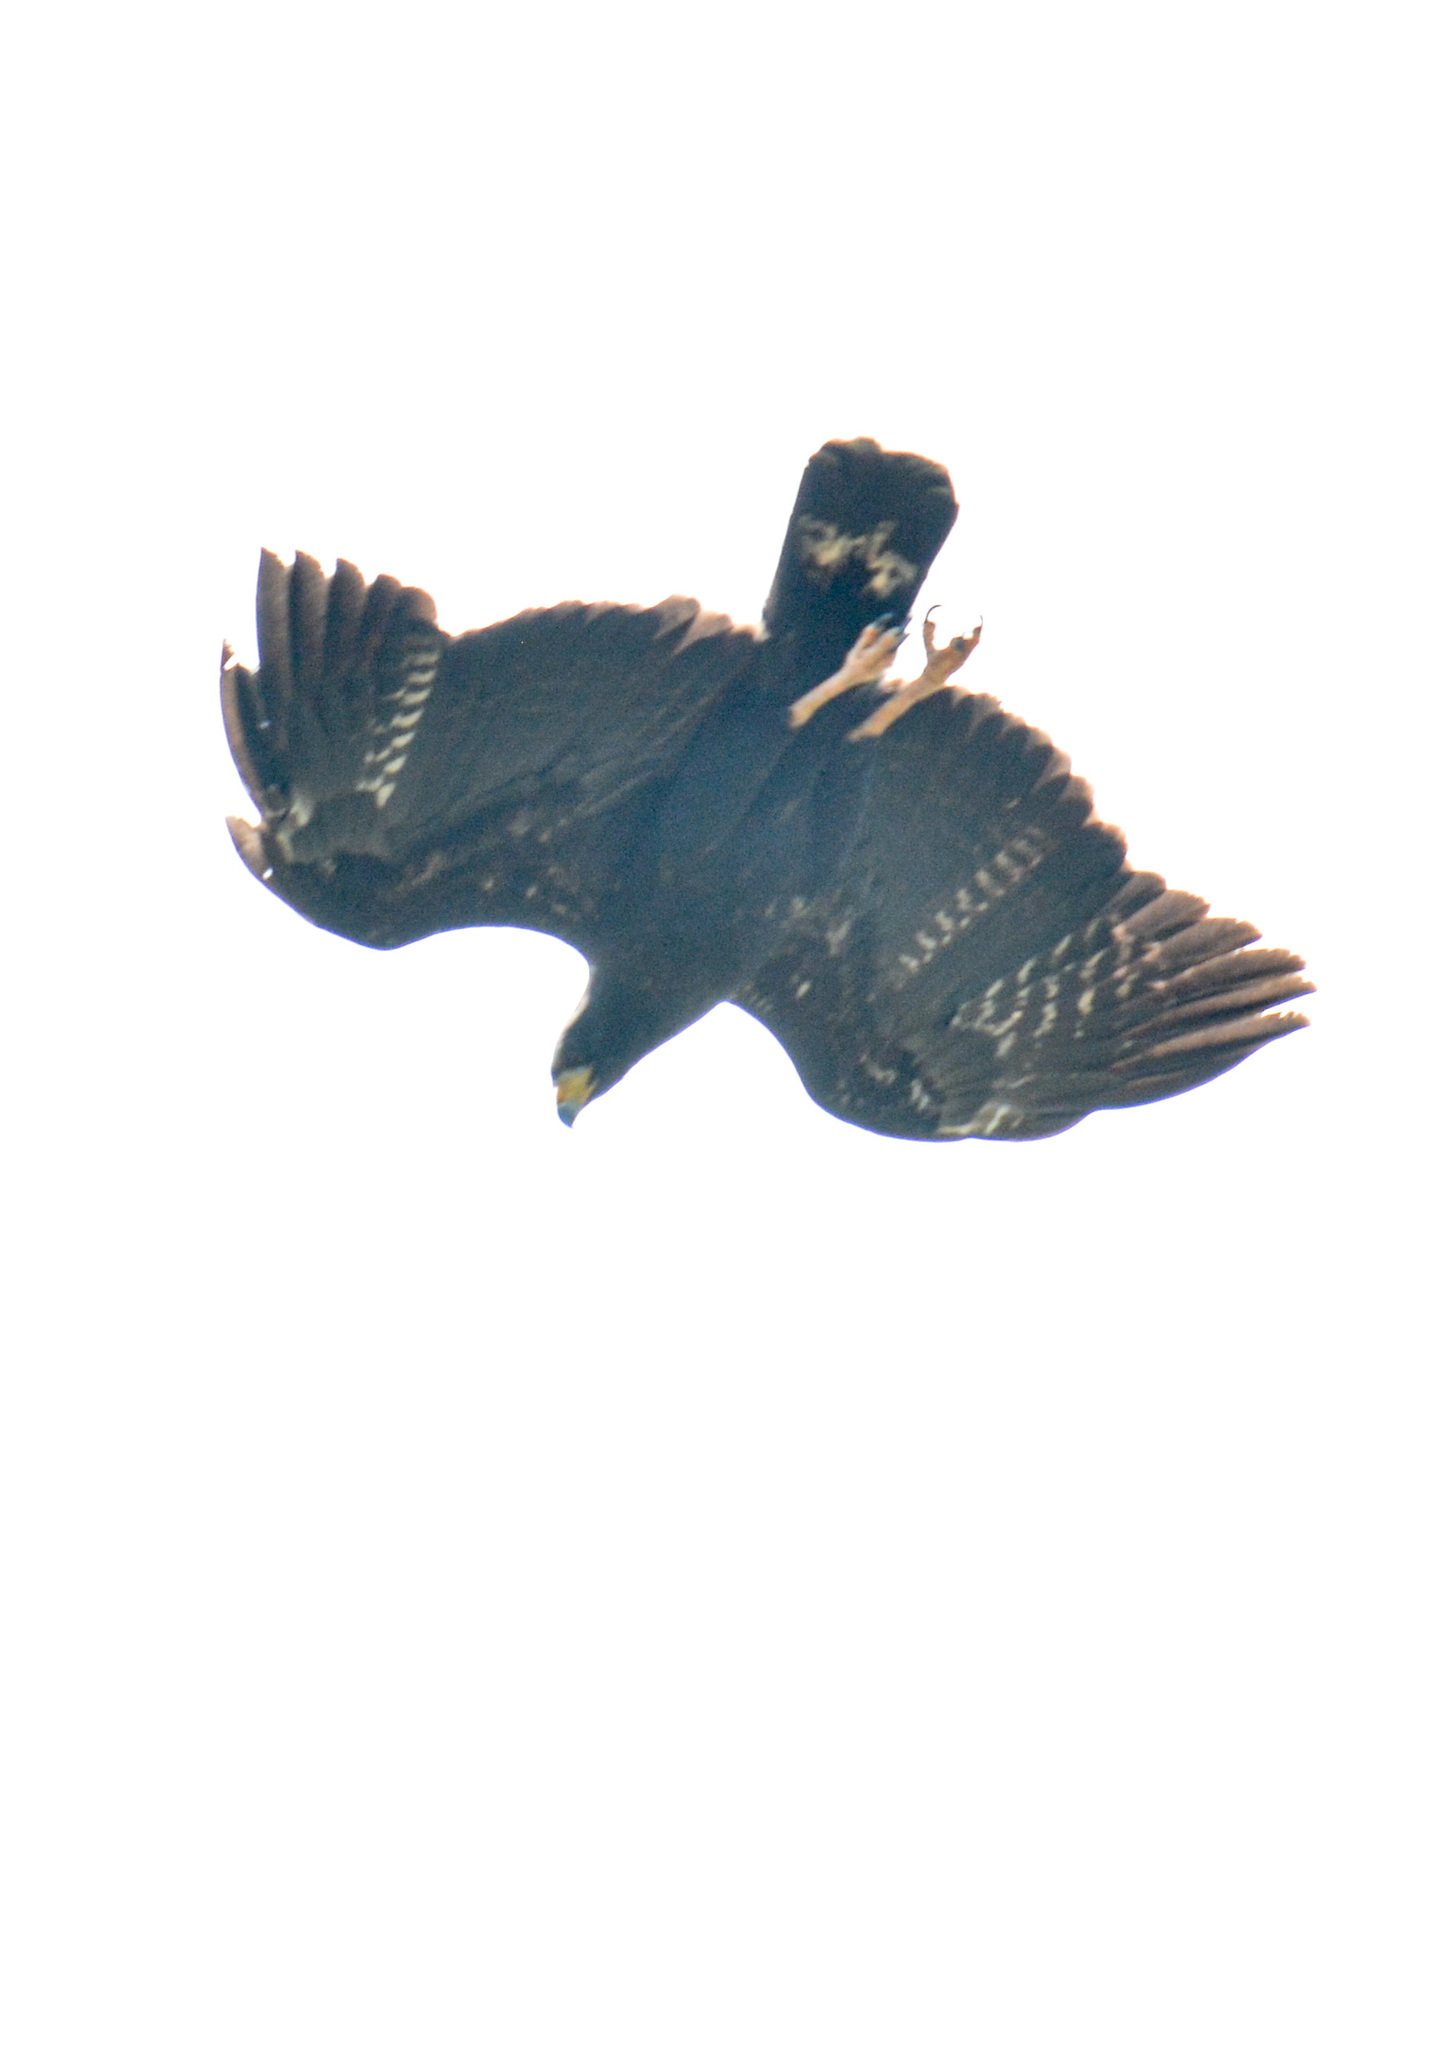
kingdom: Animalia
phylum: Chordata
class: Aves
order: Accipitriformes
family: Accipitridae
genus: Buteogallus
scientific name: Buteogallus anthracinus
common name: Common black hawk
